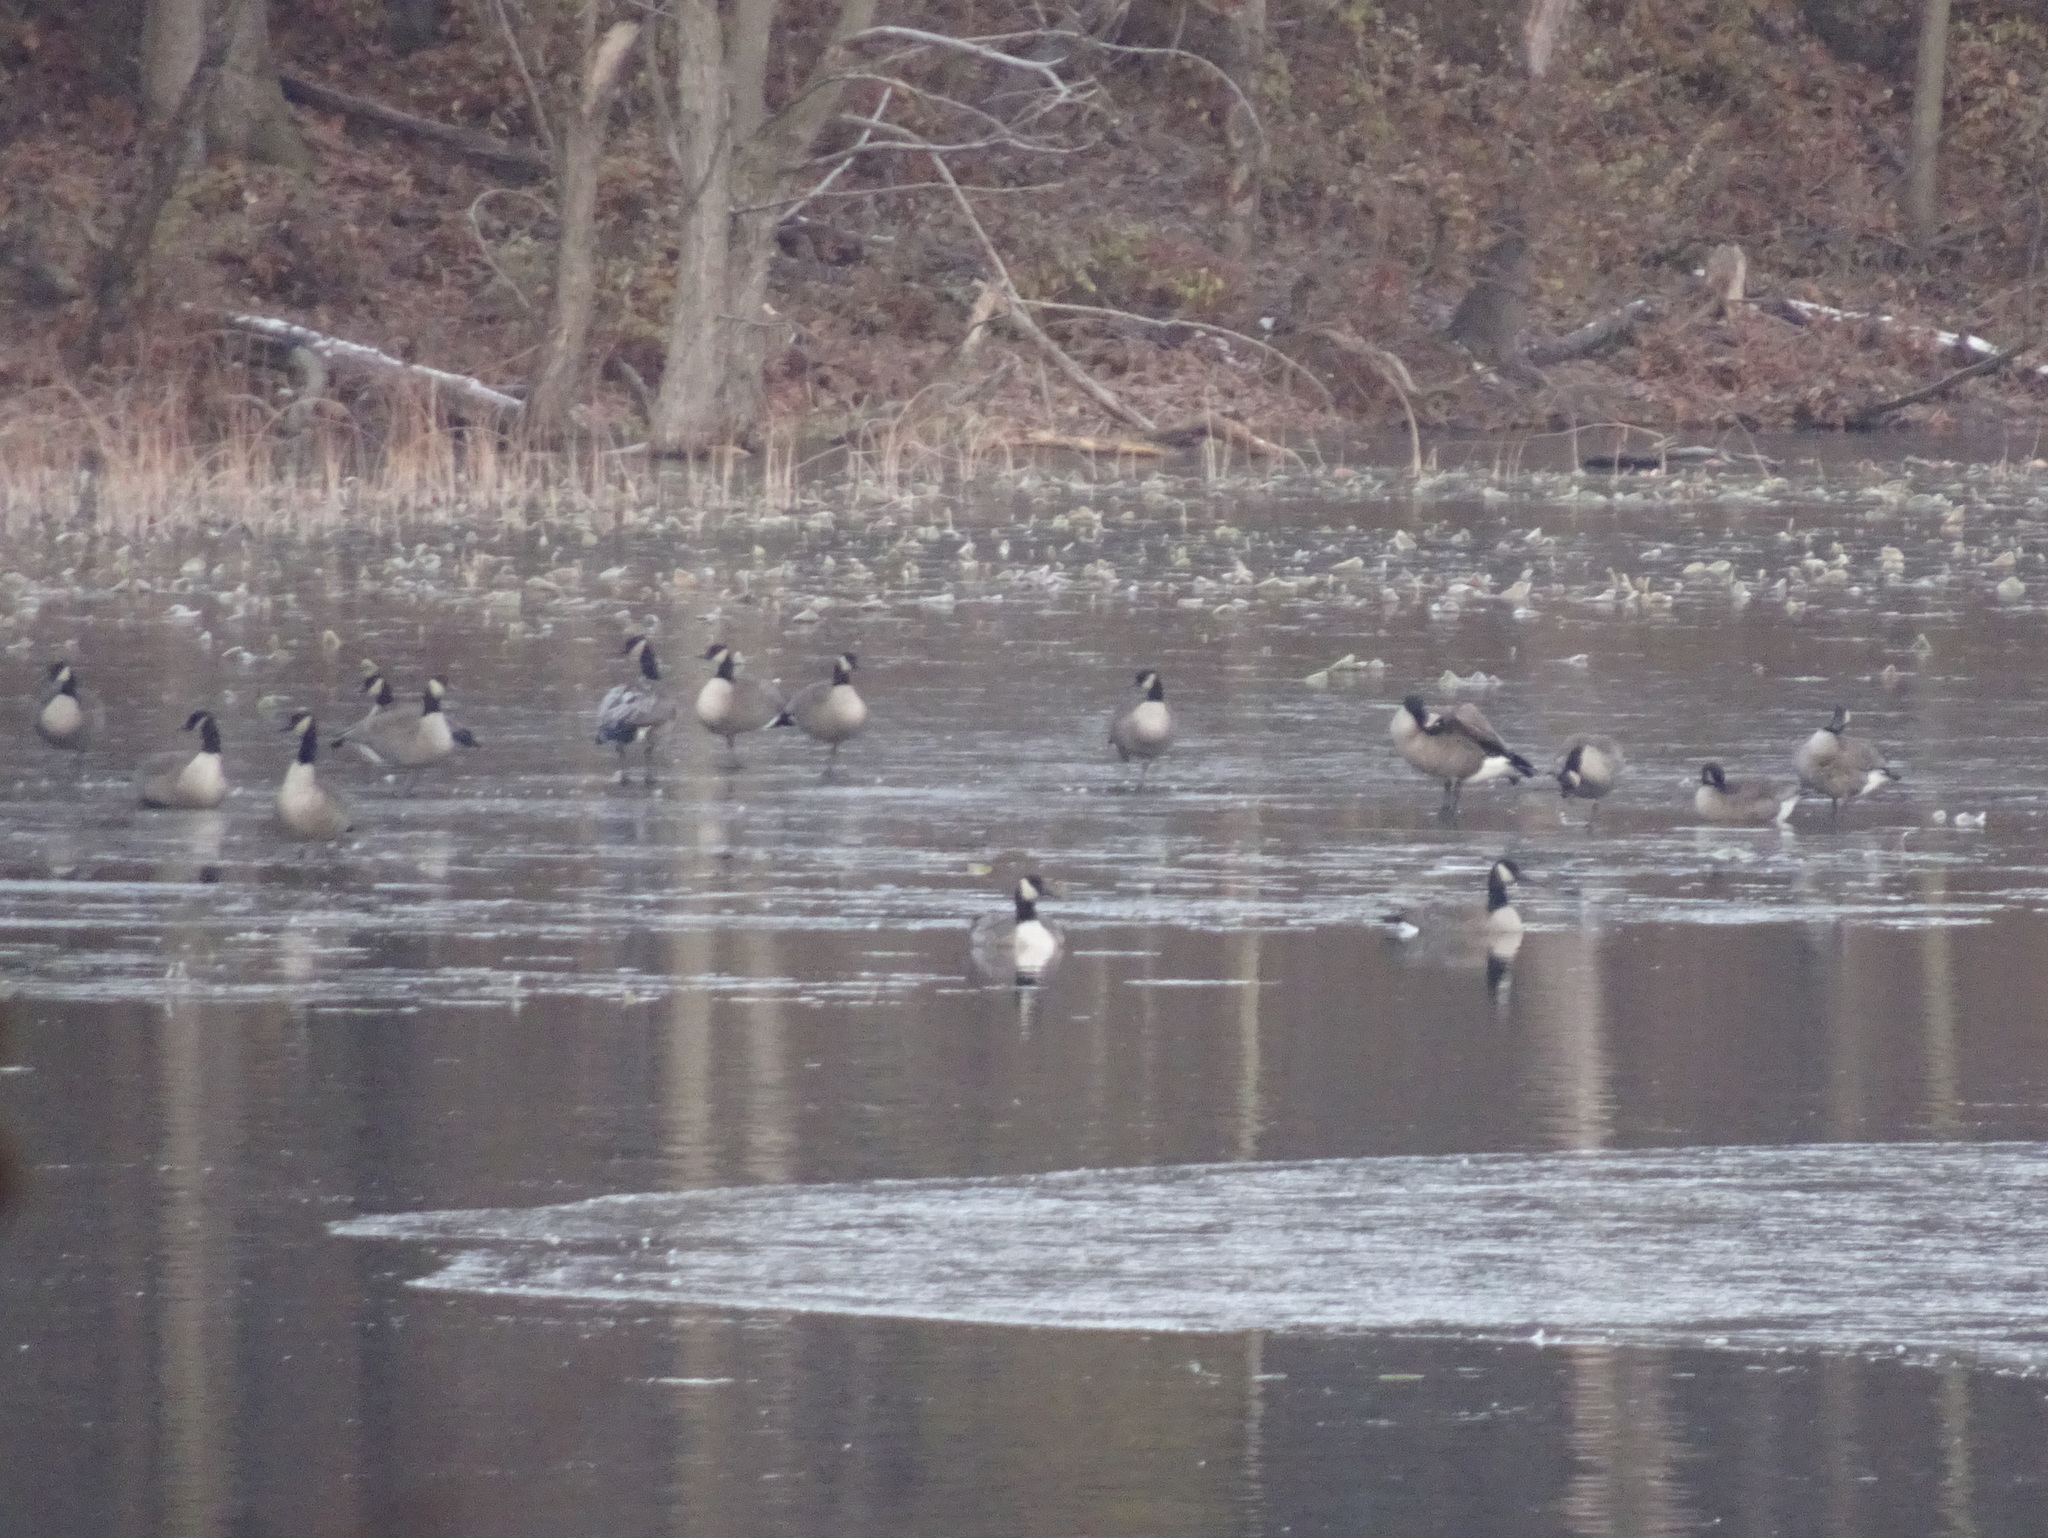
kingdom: Animalia
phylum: Chordata
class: Aves
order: Anseriformes
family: Anatidae
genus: Branta
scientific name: Branta canadensis
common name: Canada goose
